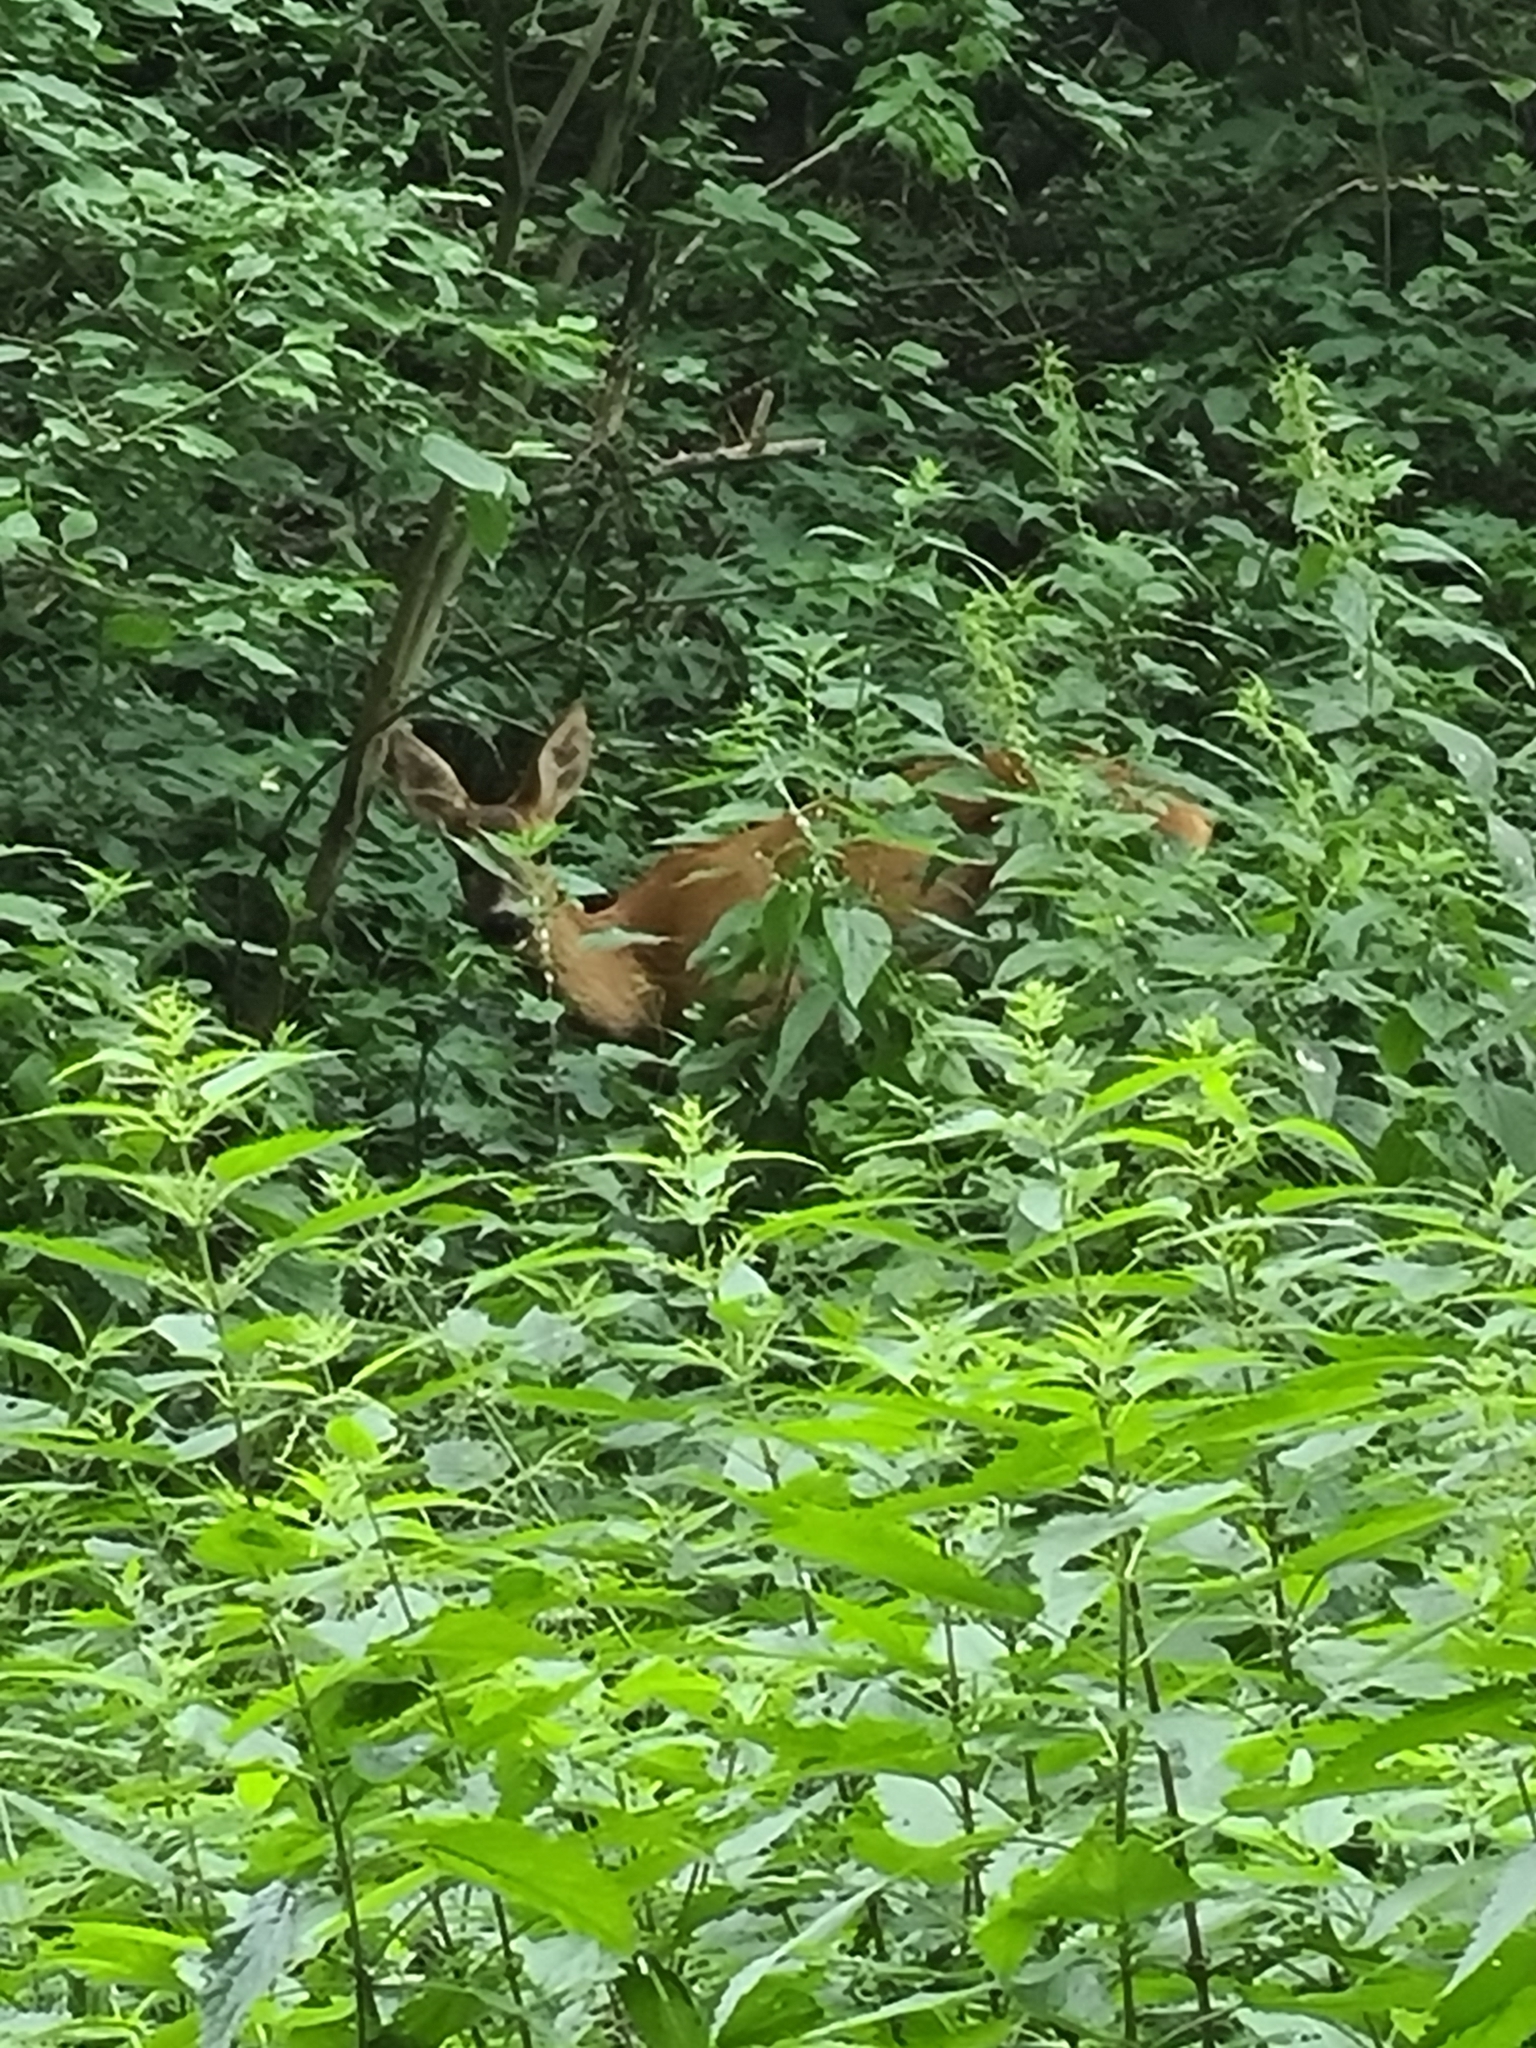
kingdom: Animalia
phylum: Chordata
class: Mammalia
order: Artiodactyla
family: Cervidae
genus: Capreolus
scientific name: Capreolus capreolus
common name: Western roe deer
